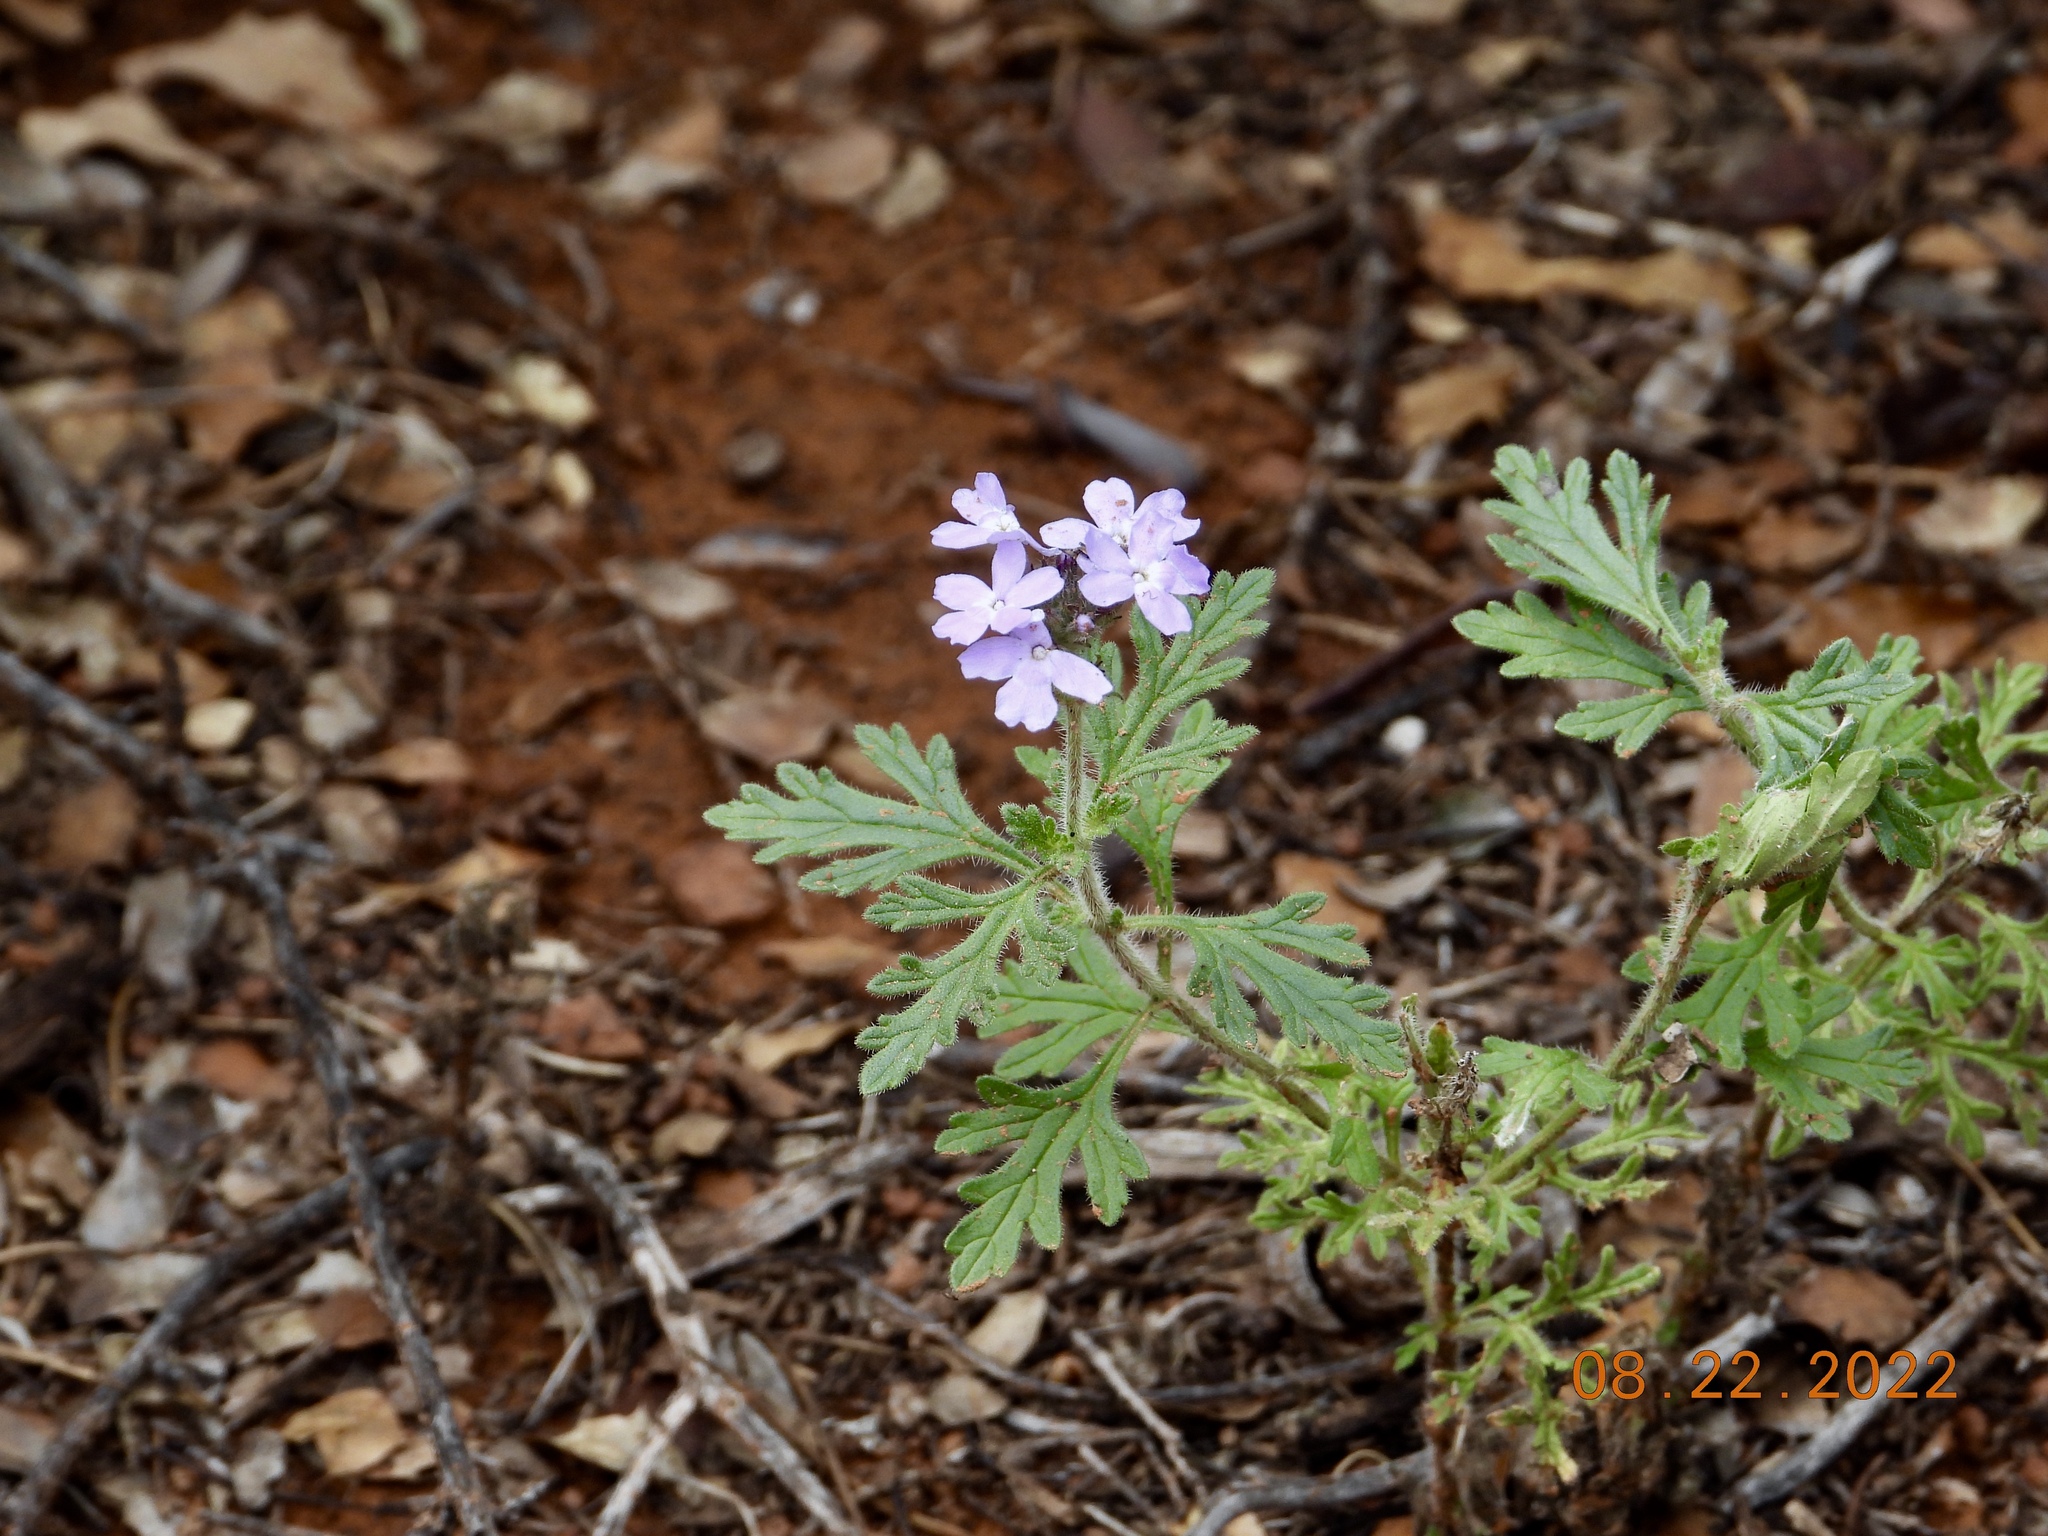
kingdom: Plantae
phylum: Tracheophyta
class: Magnoliopsida
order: Lamiales
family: Verbenaceae
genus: Verbena
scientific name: Verbena bipinnatifida
